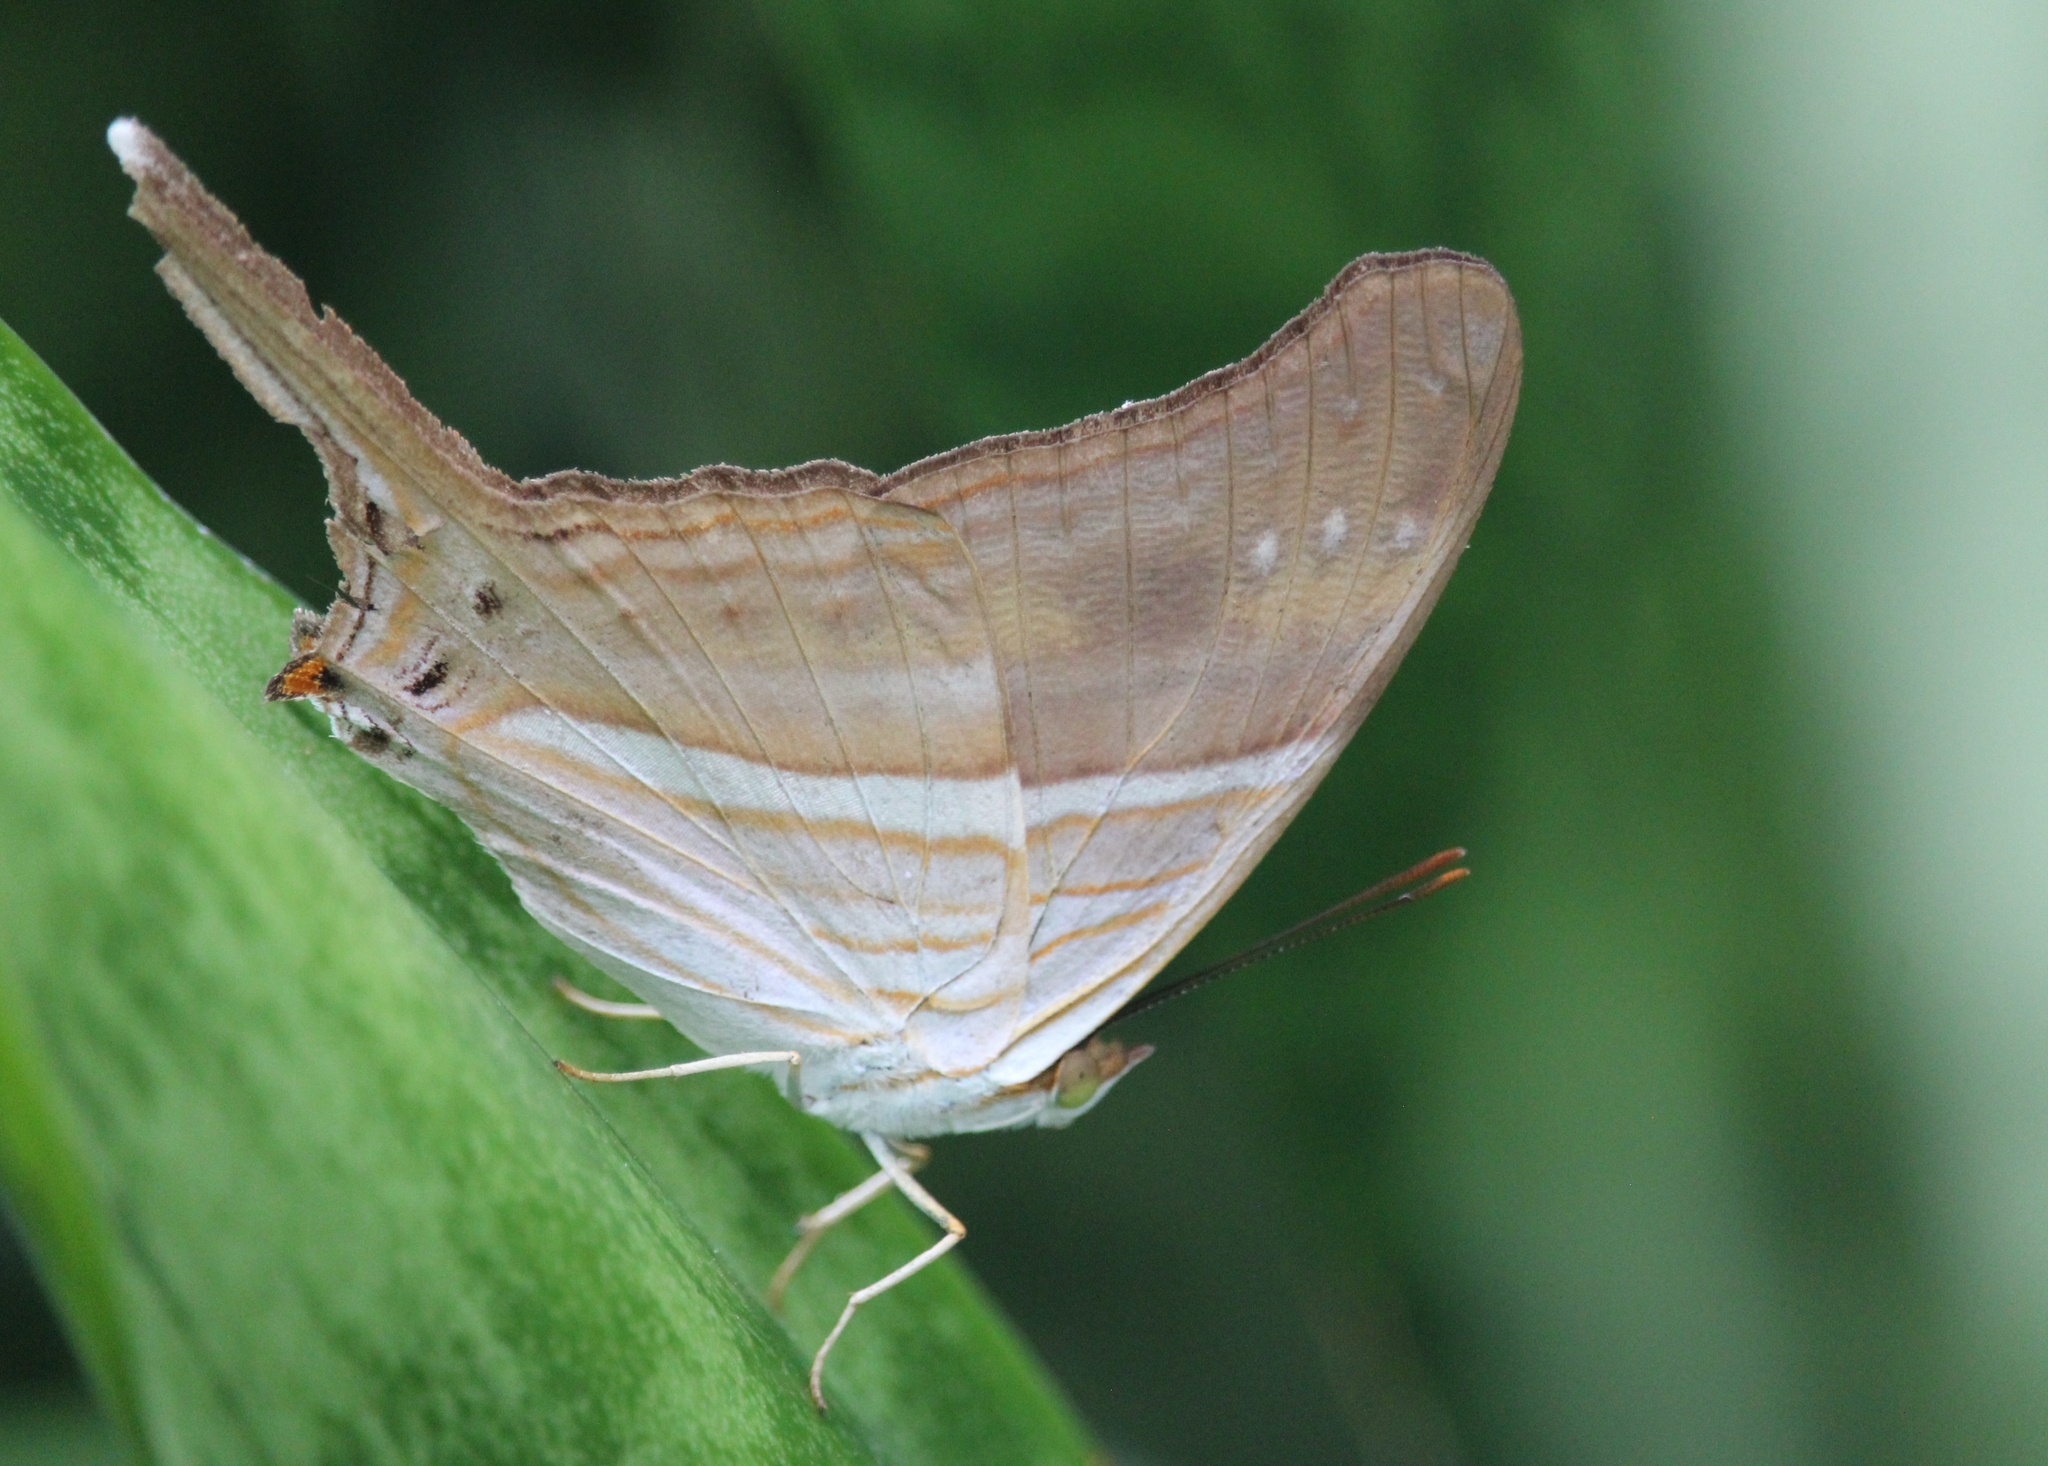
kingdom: Animalia
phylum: Arthropoda
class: Insecta
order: Lepidoptera
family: Nymphalidae
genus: Marpesia
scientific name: Marpesia chiron
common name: Many-banded daggerwing
